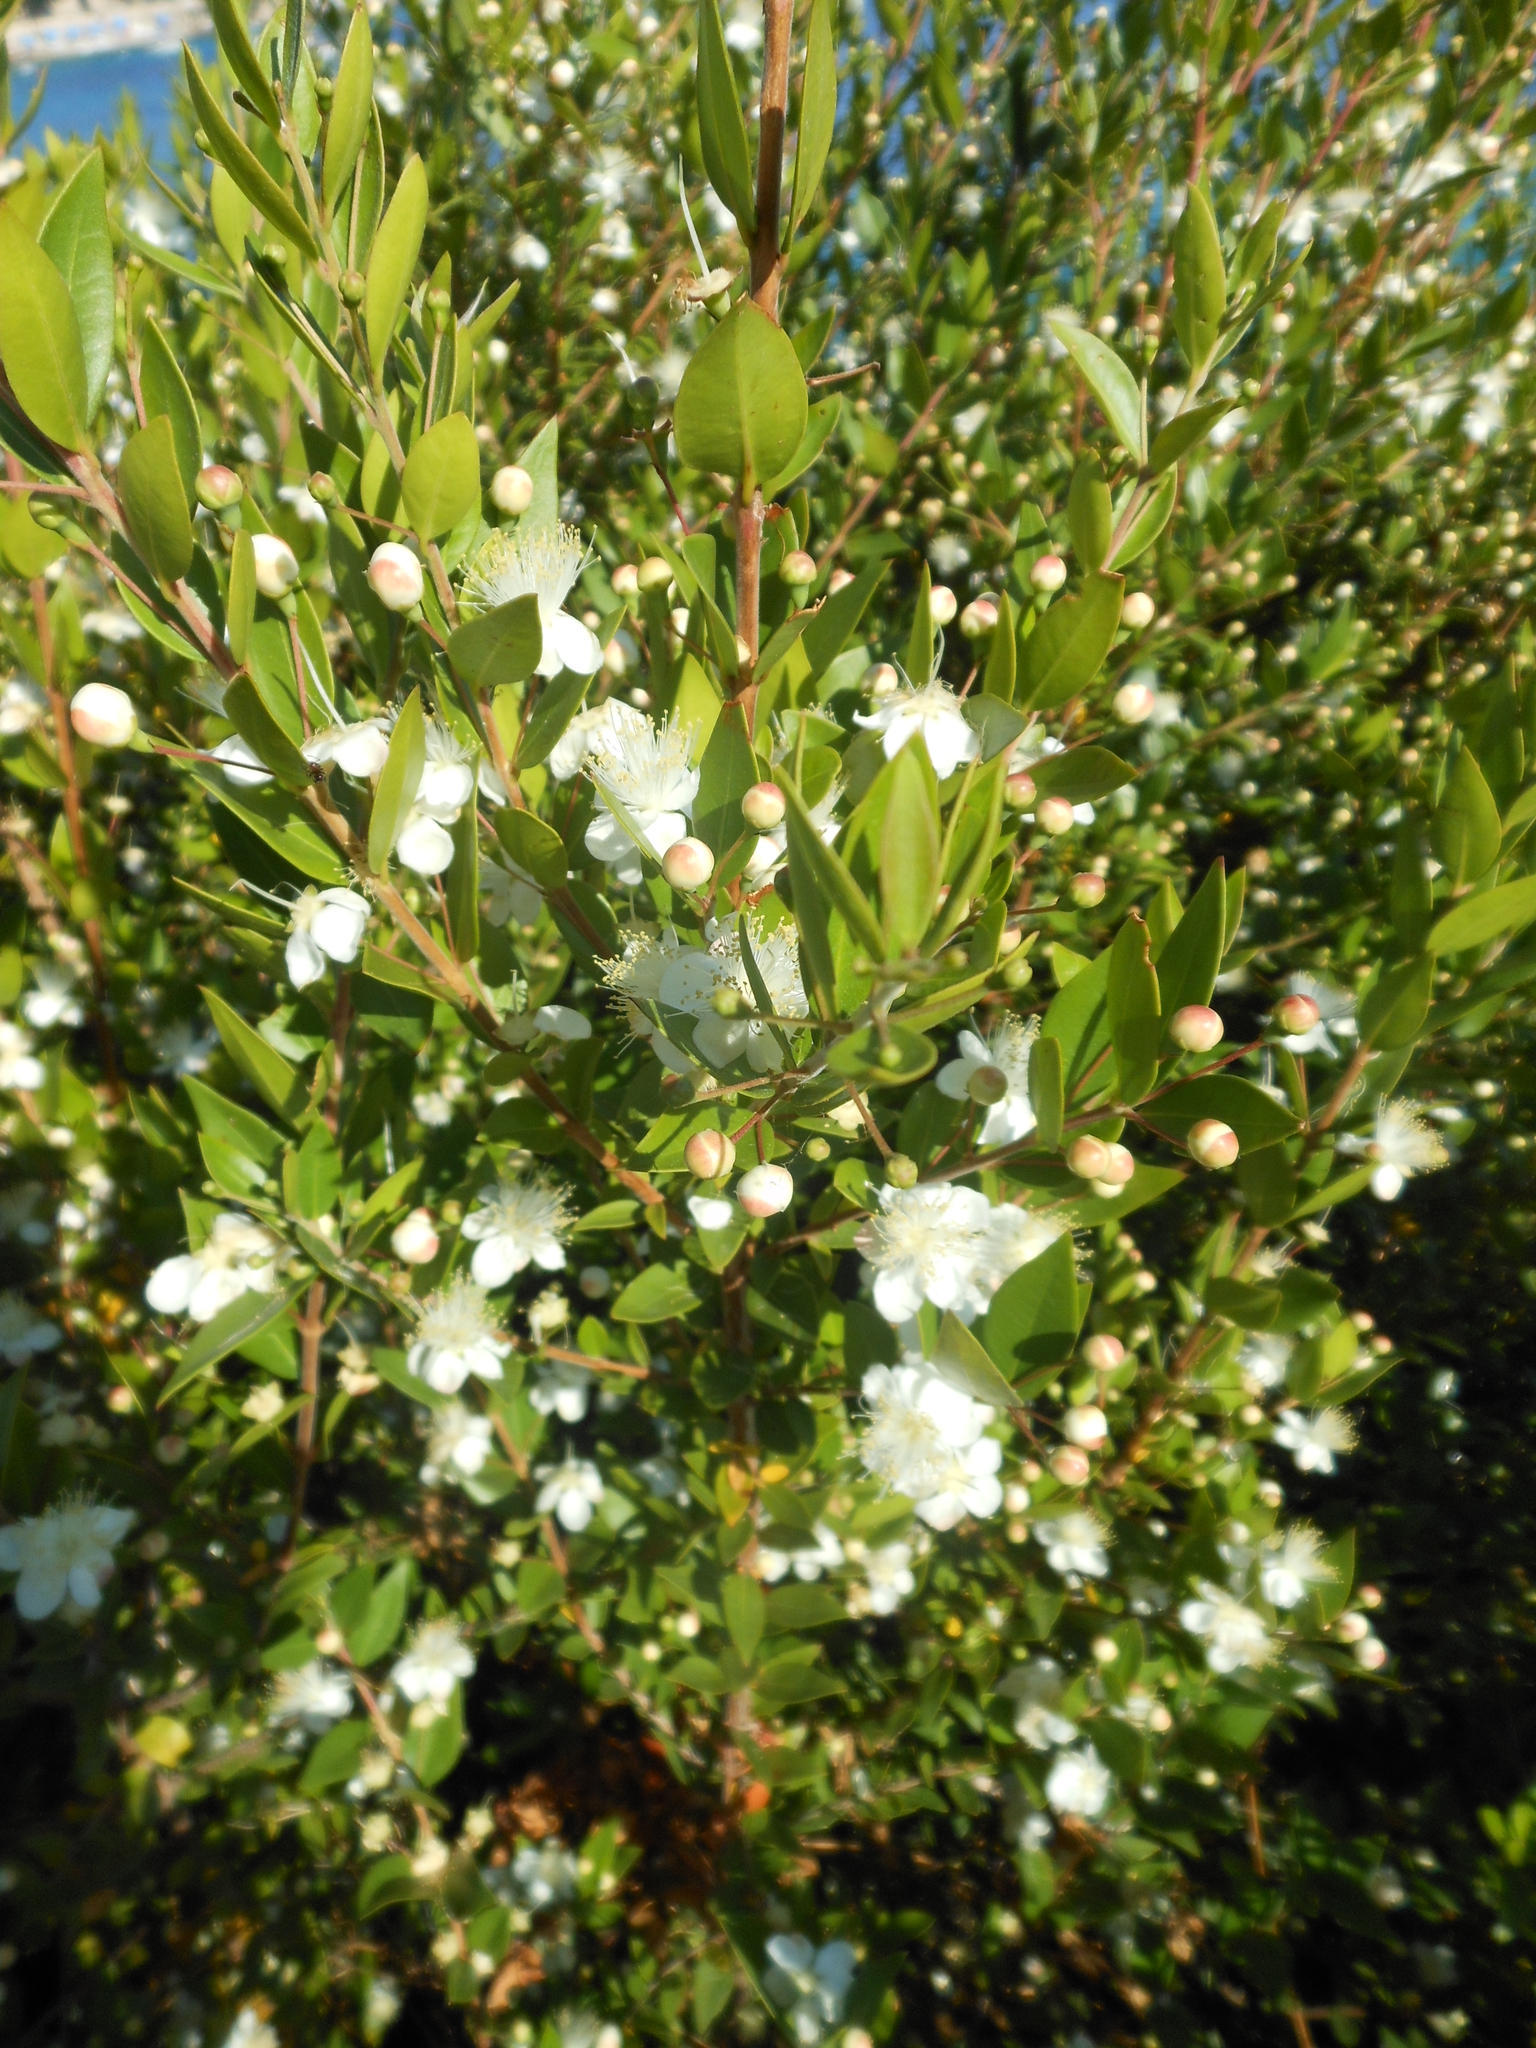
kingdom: Plantae
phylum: Tracheophyta
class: Magnoliopsida
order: Myrtales
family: Myrtaceae
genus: Myrtus
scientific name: Myrtus communis
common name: Myrtle
